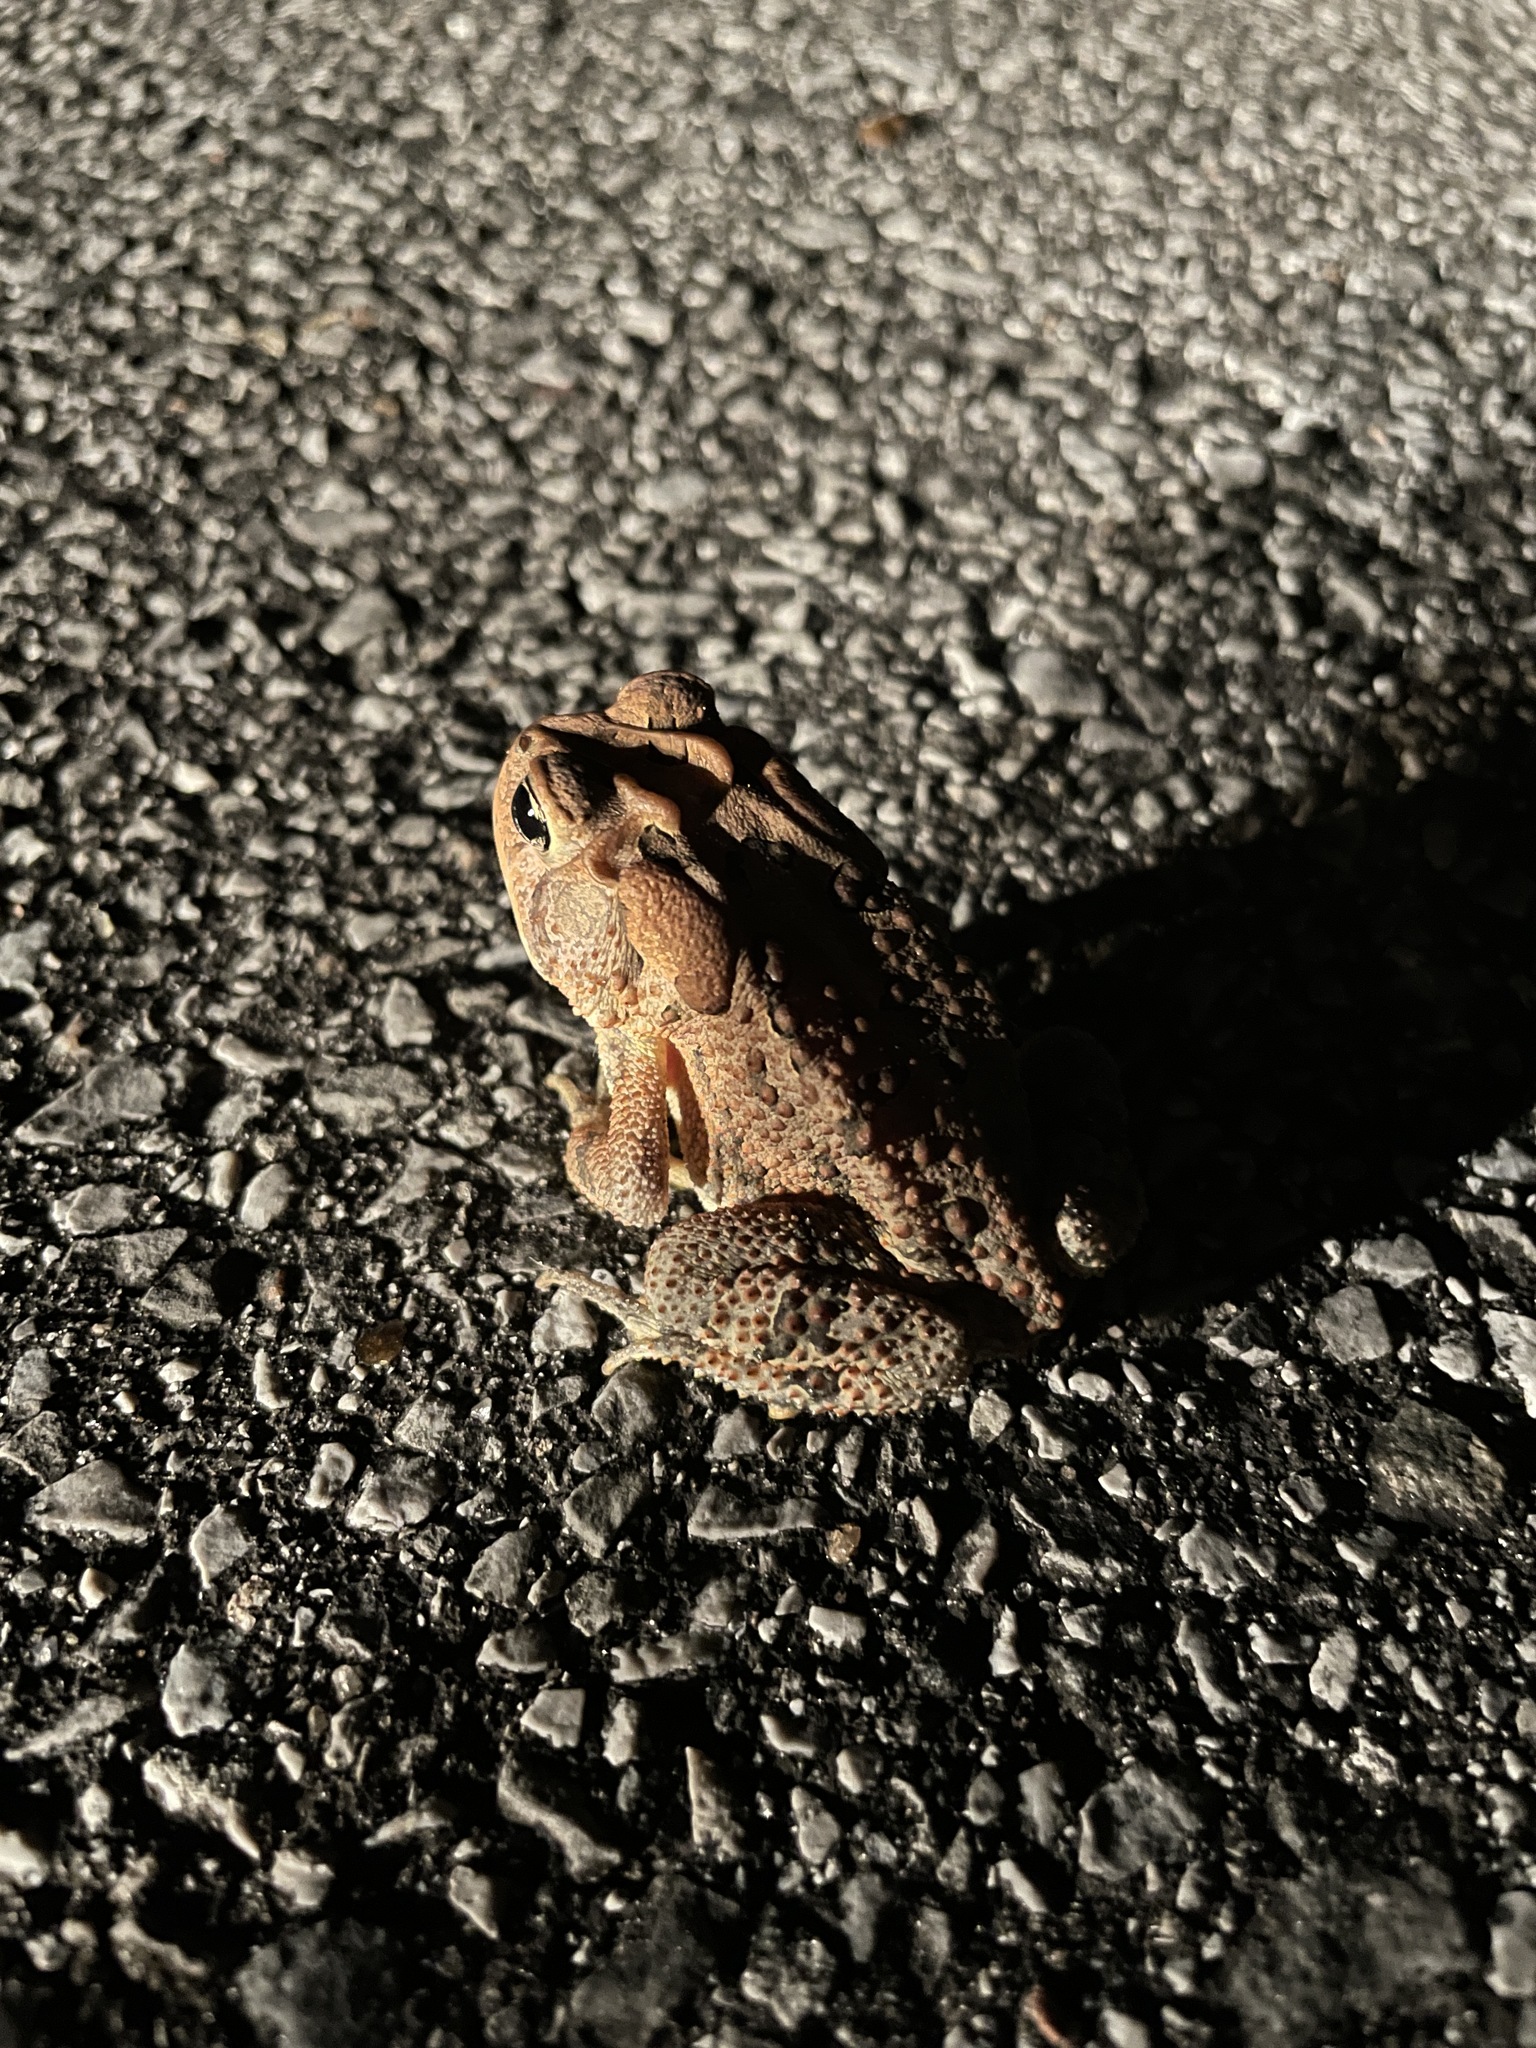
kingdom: Animalia
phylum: Chordata
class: Amphibia
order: Anura
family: Bufonidae
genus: Anaxyrus
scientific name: Anaxyrus terrestris
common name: Southern toad
